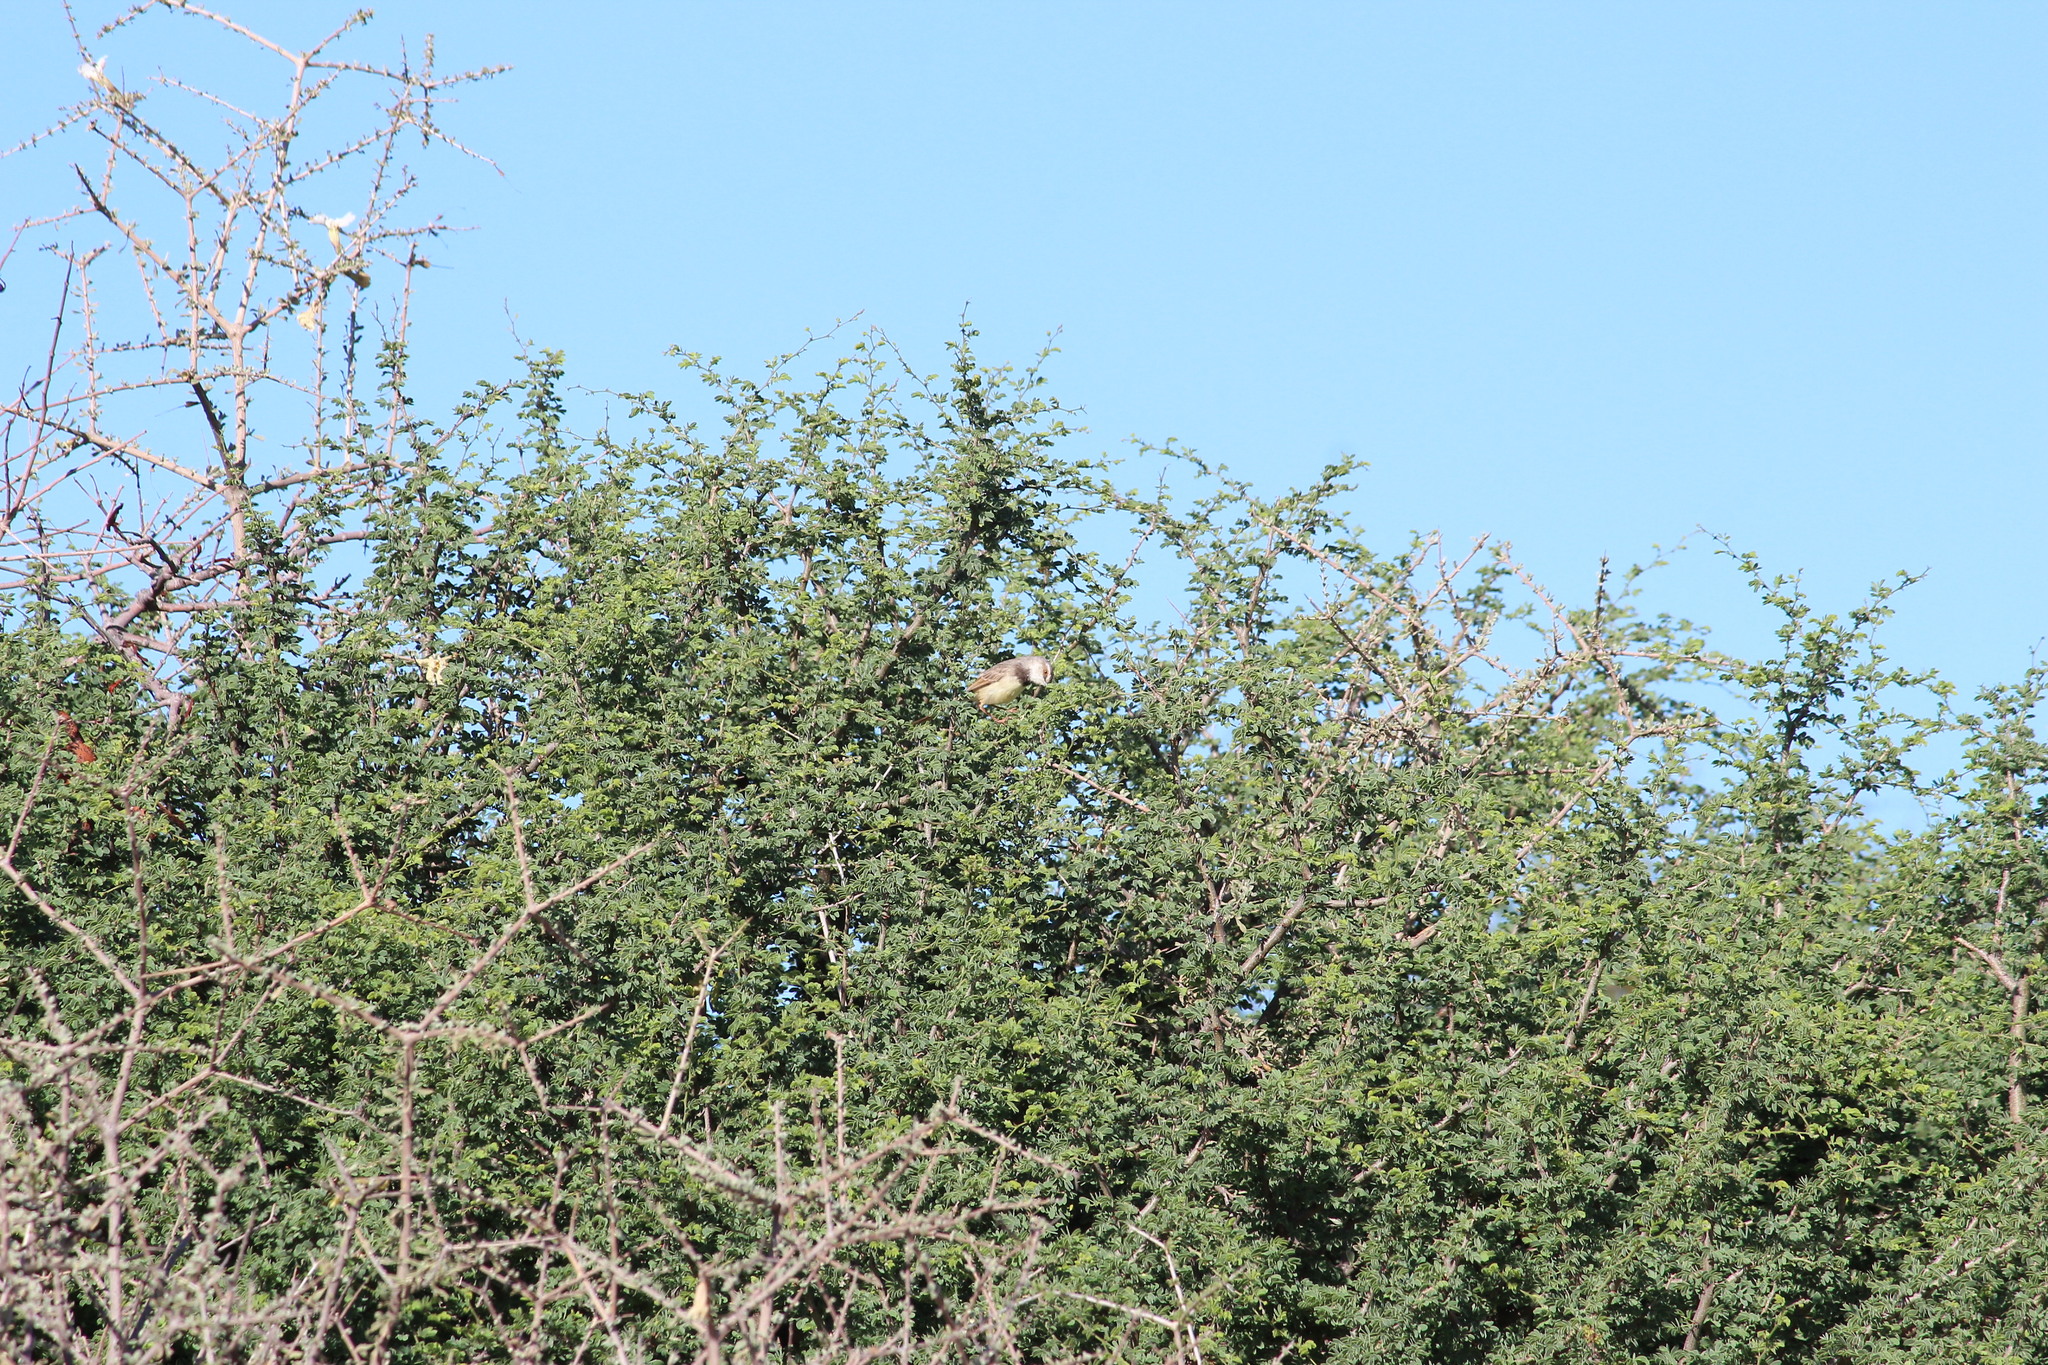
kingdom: Animalia
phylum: Chordata
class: Aves
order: Passeriformes
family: Cisticolidae
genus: Prinia
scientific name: Prinia flavicans
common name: Black-chested prinia
